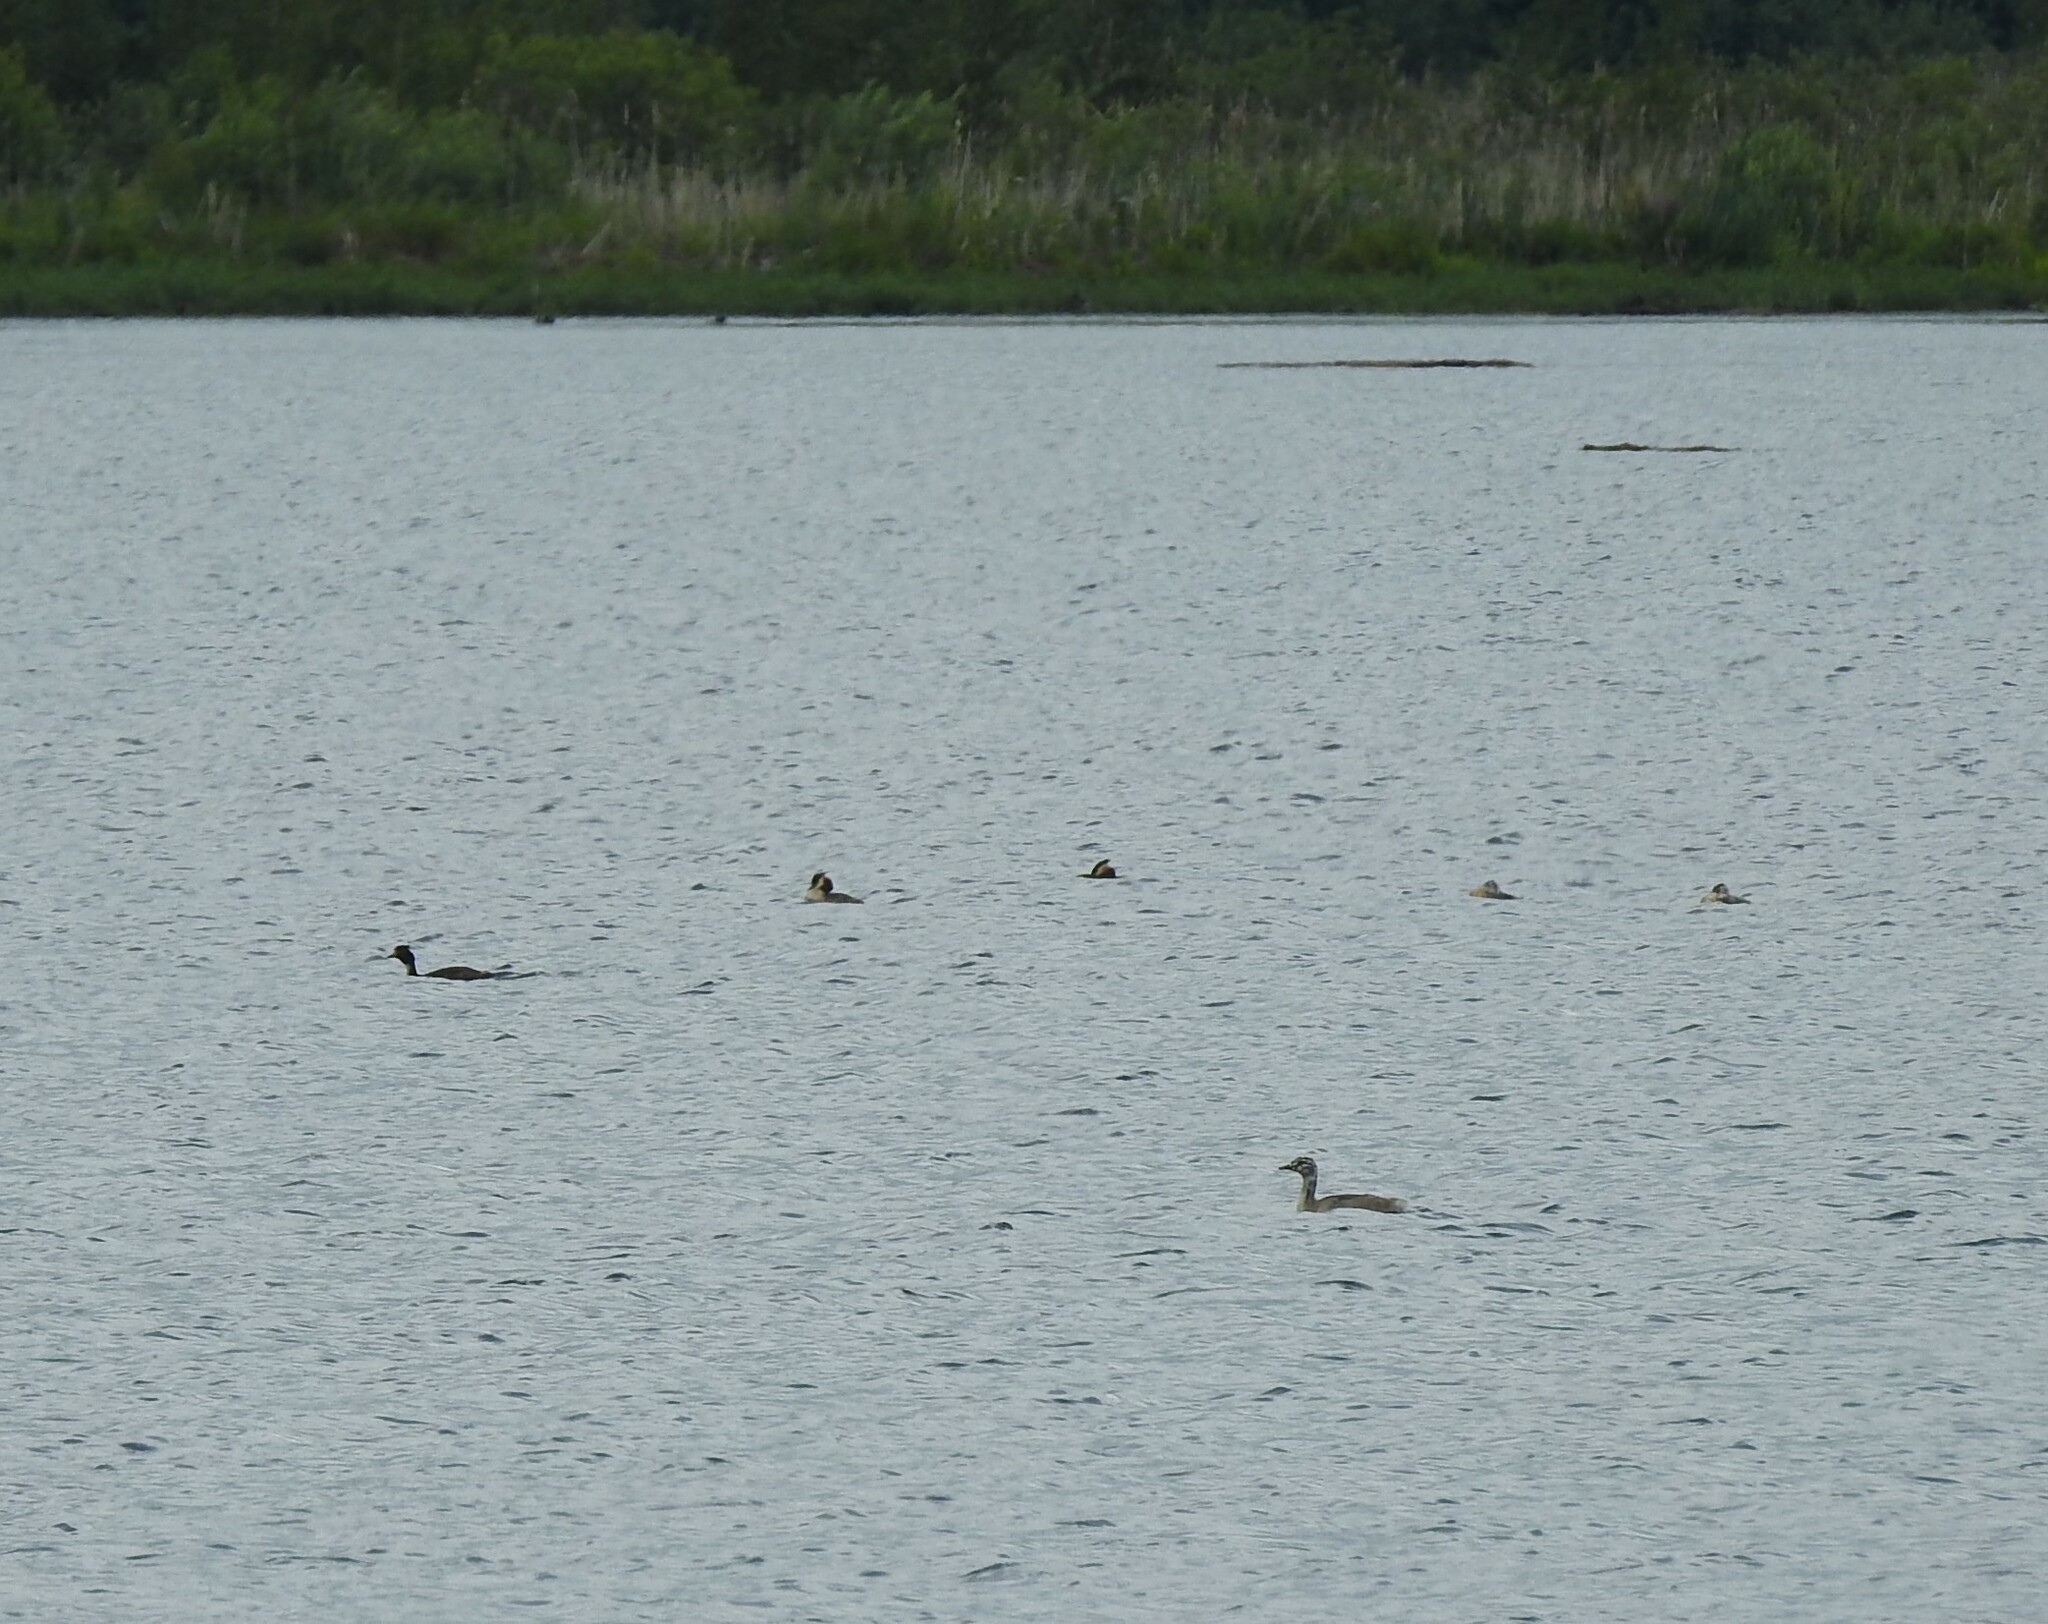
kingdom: Animalia
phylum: Chordata
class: Aves
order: Podicipediformes
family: Podicipedidae
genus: Podiceps
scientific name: Podiceps cristatus
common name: Great crested grebe
